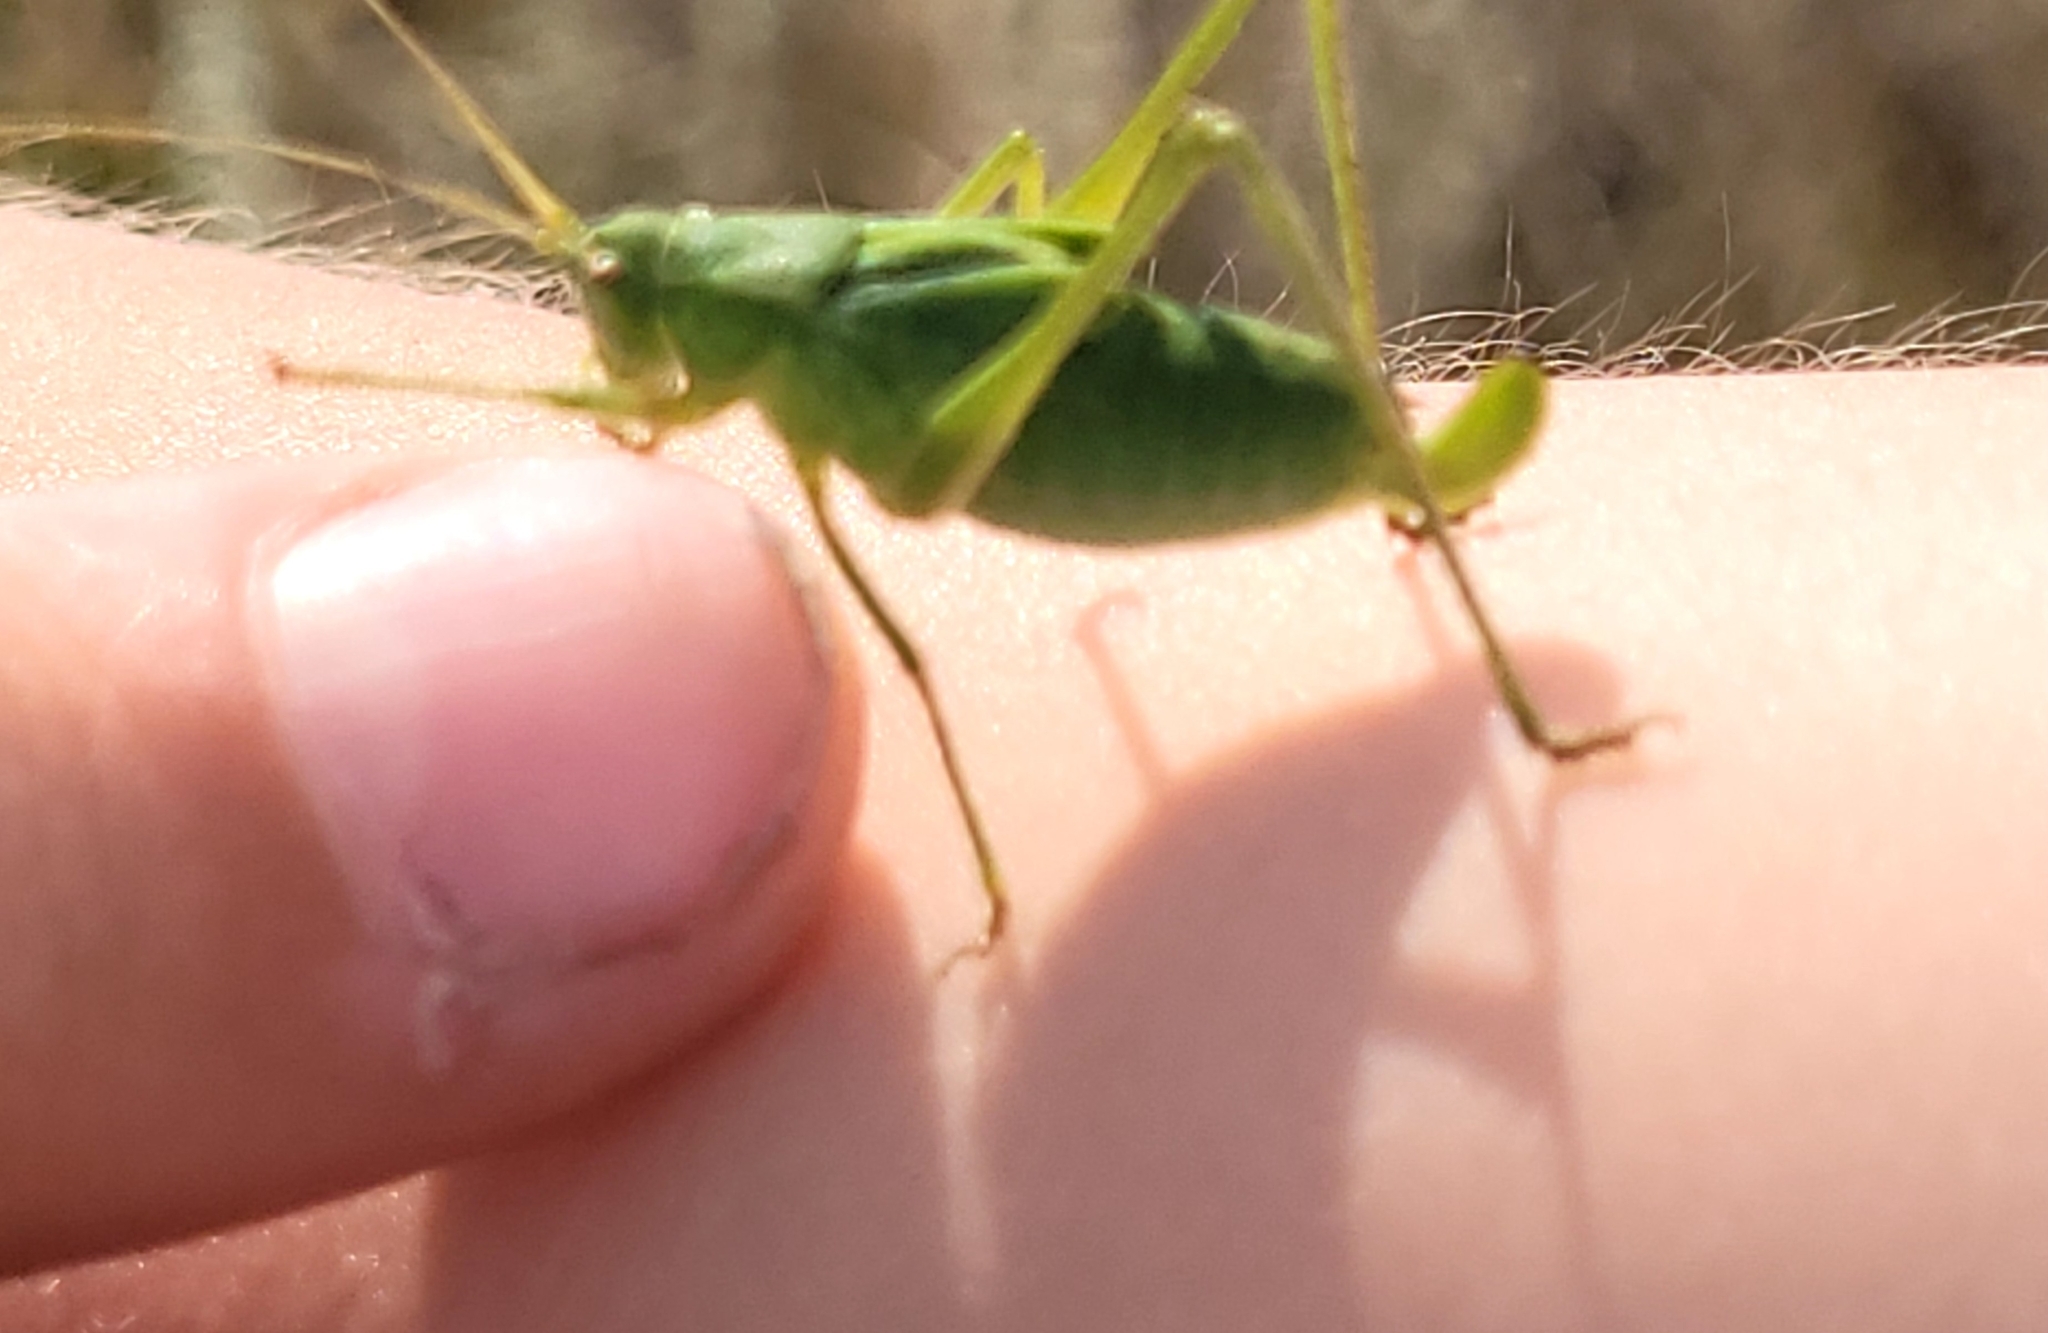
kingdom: Animalia
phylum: Arthropoda
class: Insecta
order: Orthoptera
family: Tettigoniidae
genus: Scudderia
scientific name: Scudderia pistillata
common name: Broad-winged bush-katydid
